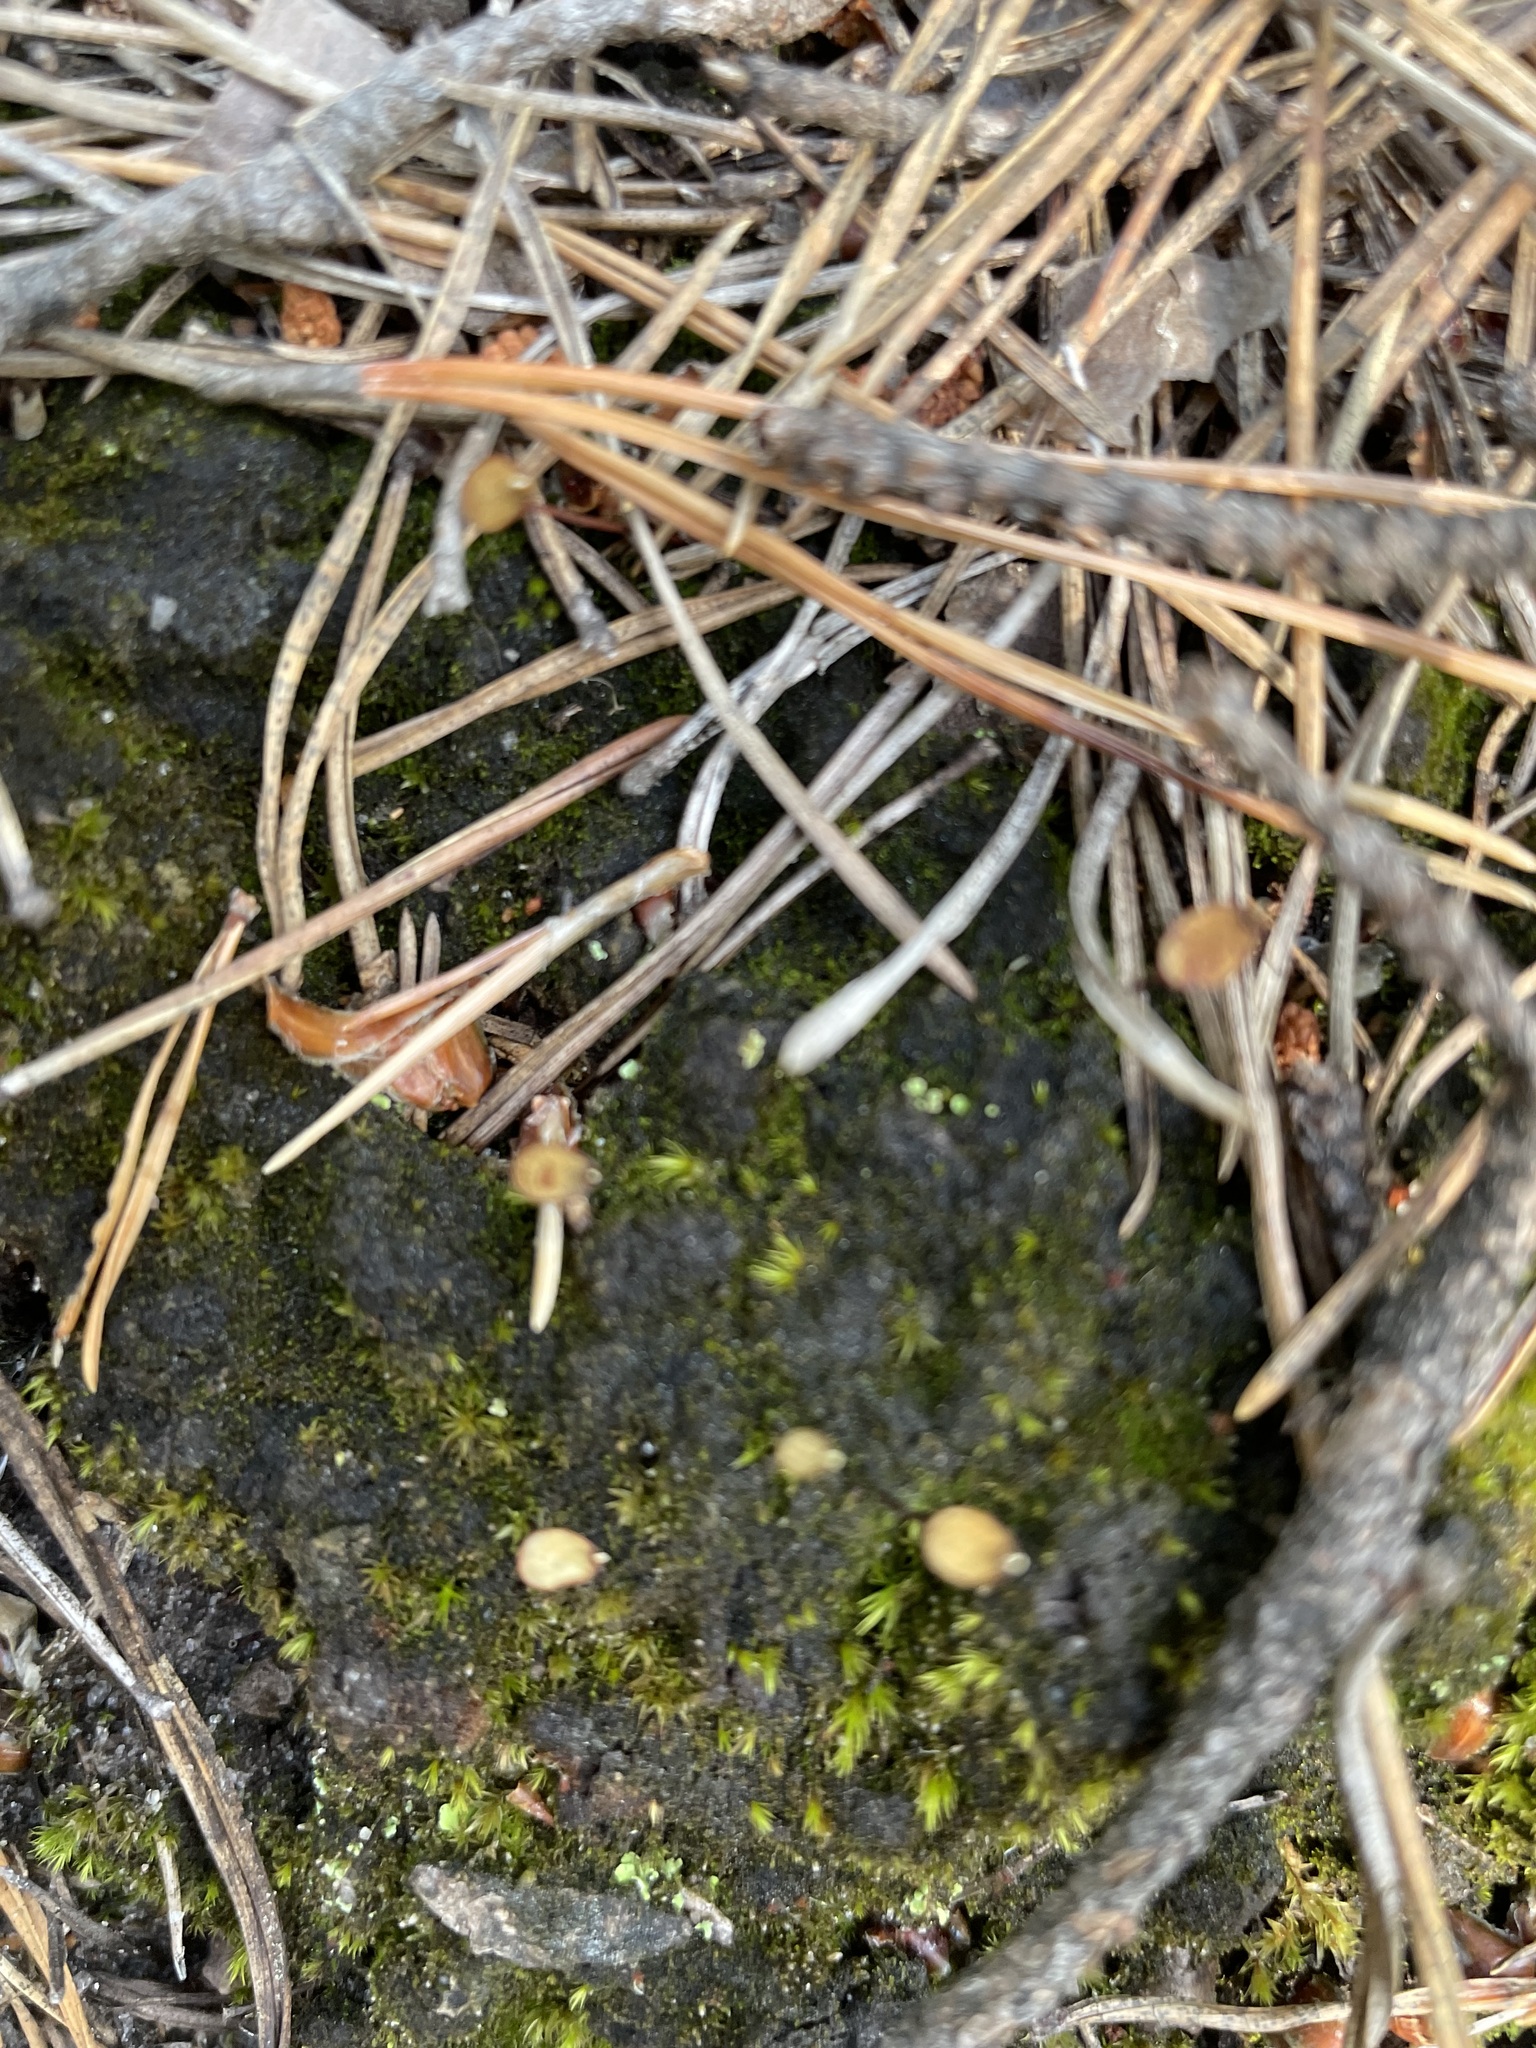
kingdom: Plantae
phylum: Bryophyta
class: Bryopsida
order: Buxbaumiales
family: Buxbaumiaceae
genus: Buxbaumia
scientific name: Buxbaumia aphylla
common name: Brown shield-moss
